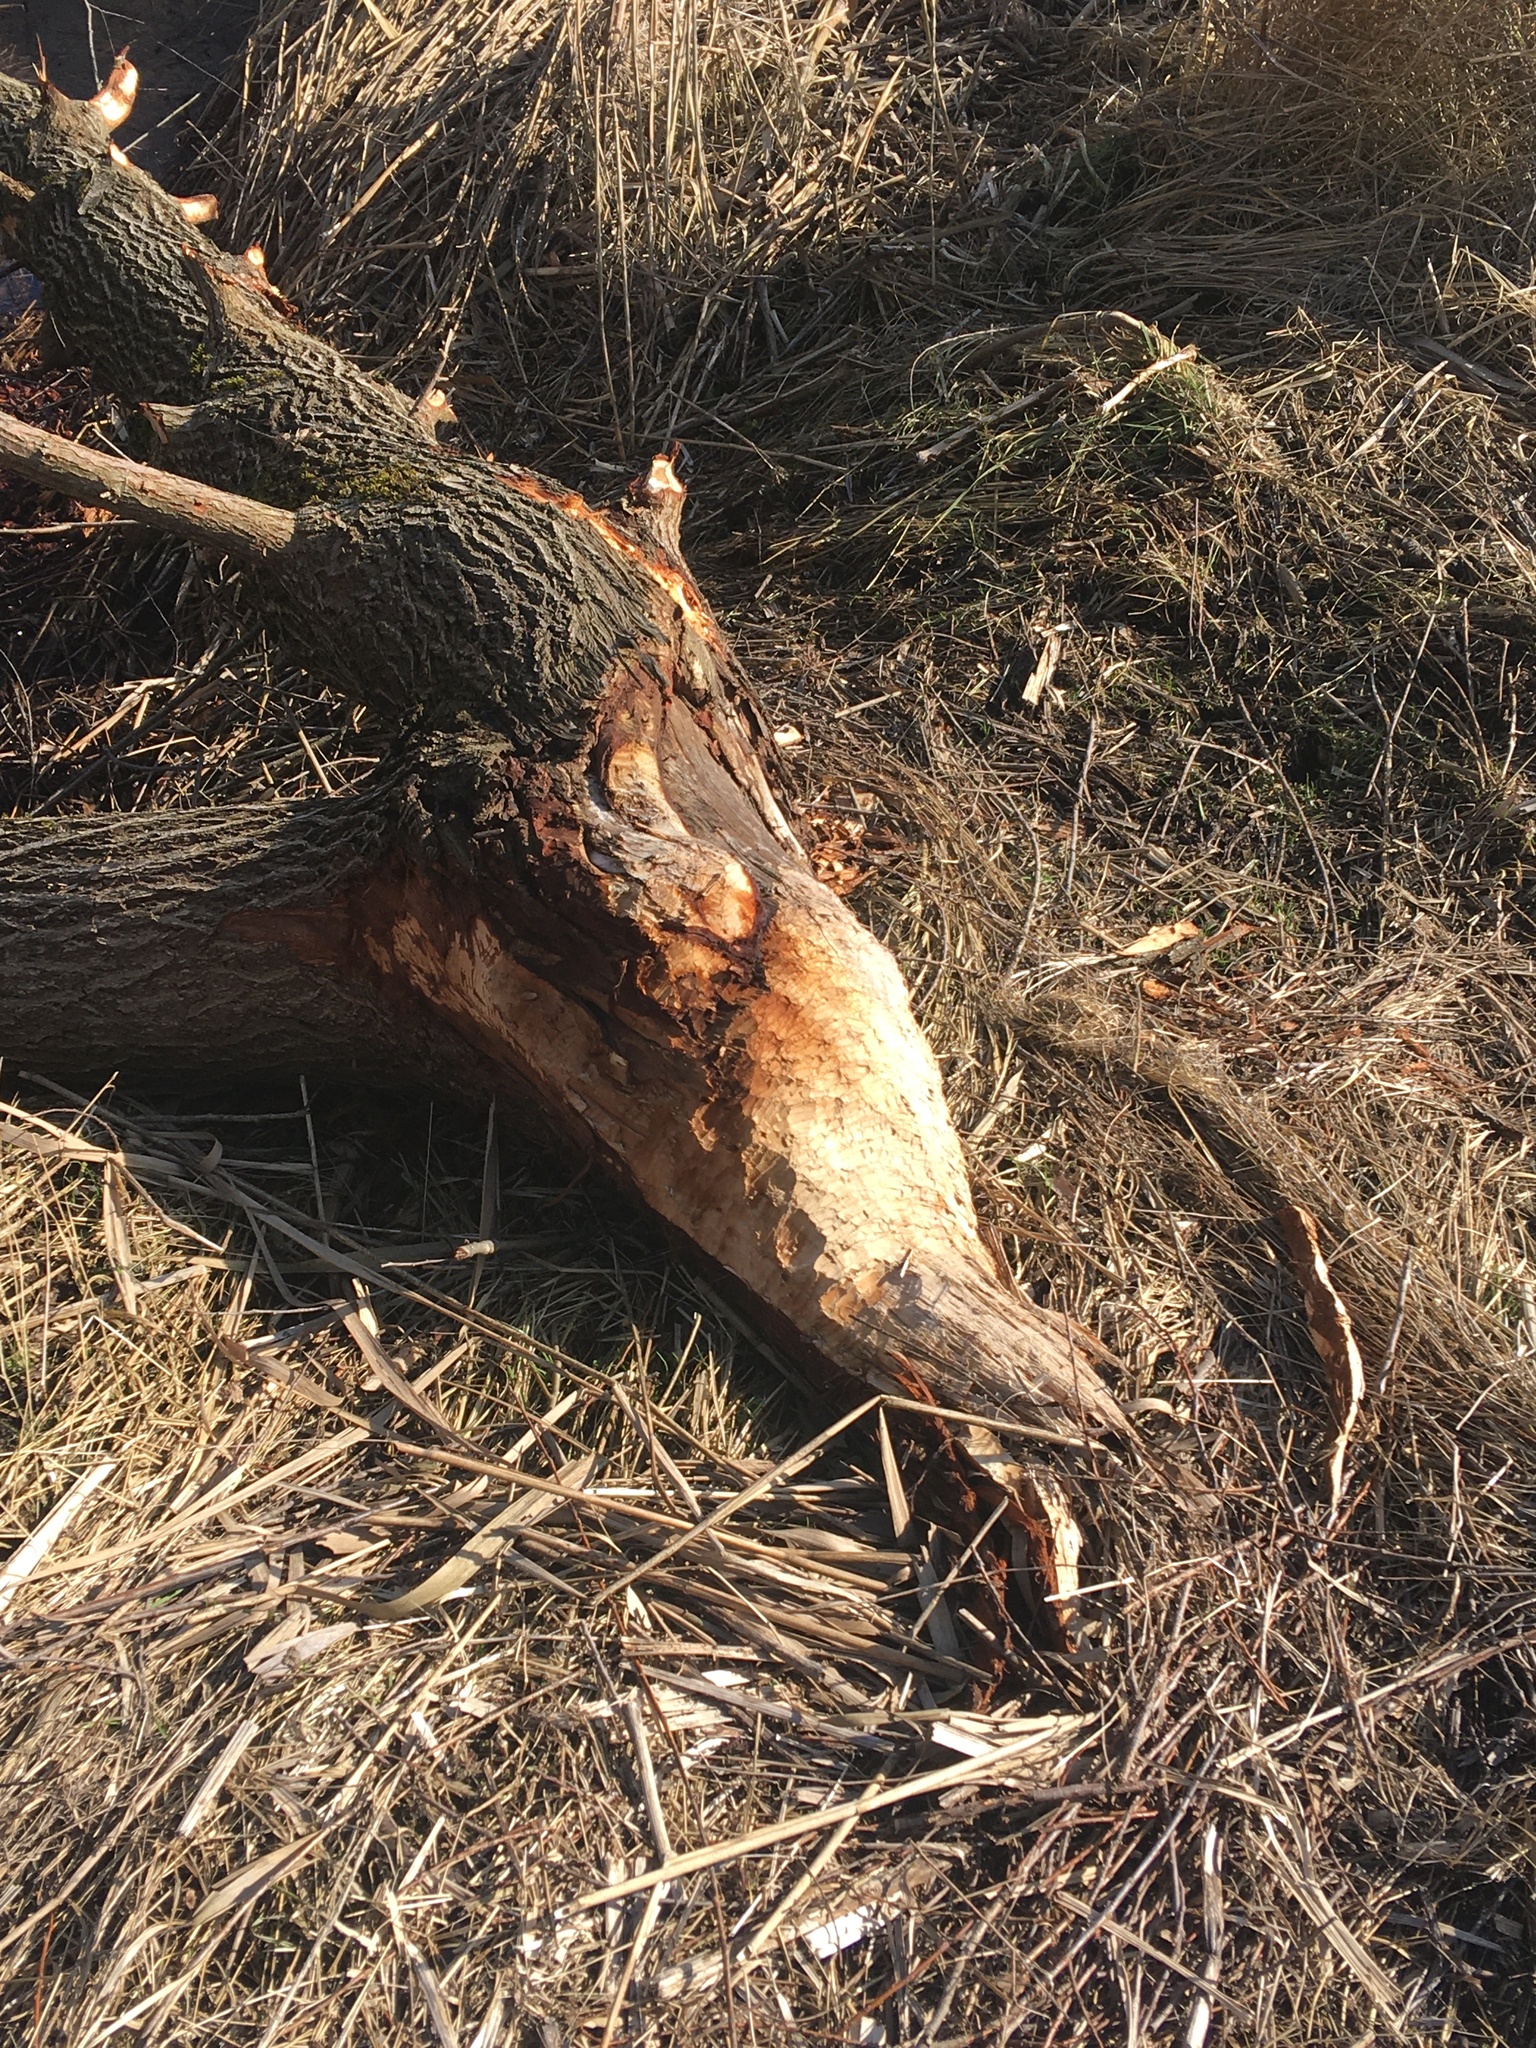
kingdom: Animalia
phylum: Chordata
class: Mammalia
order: Rodentia
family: Castoridae
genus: Castor
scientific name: Castor fiber
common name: Eurasian beaver
